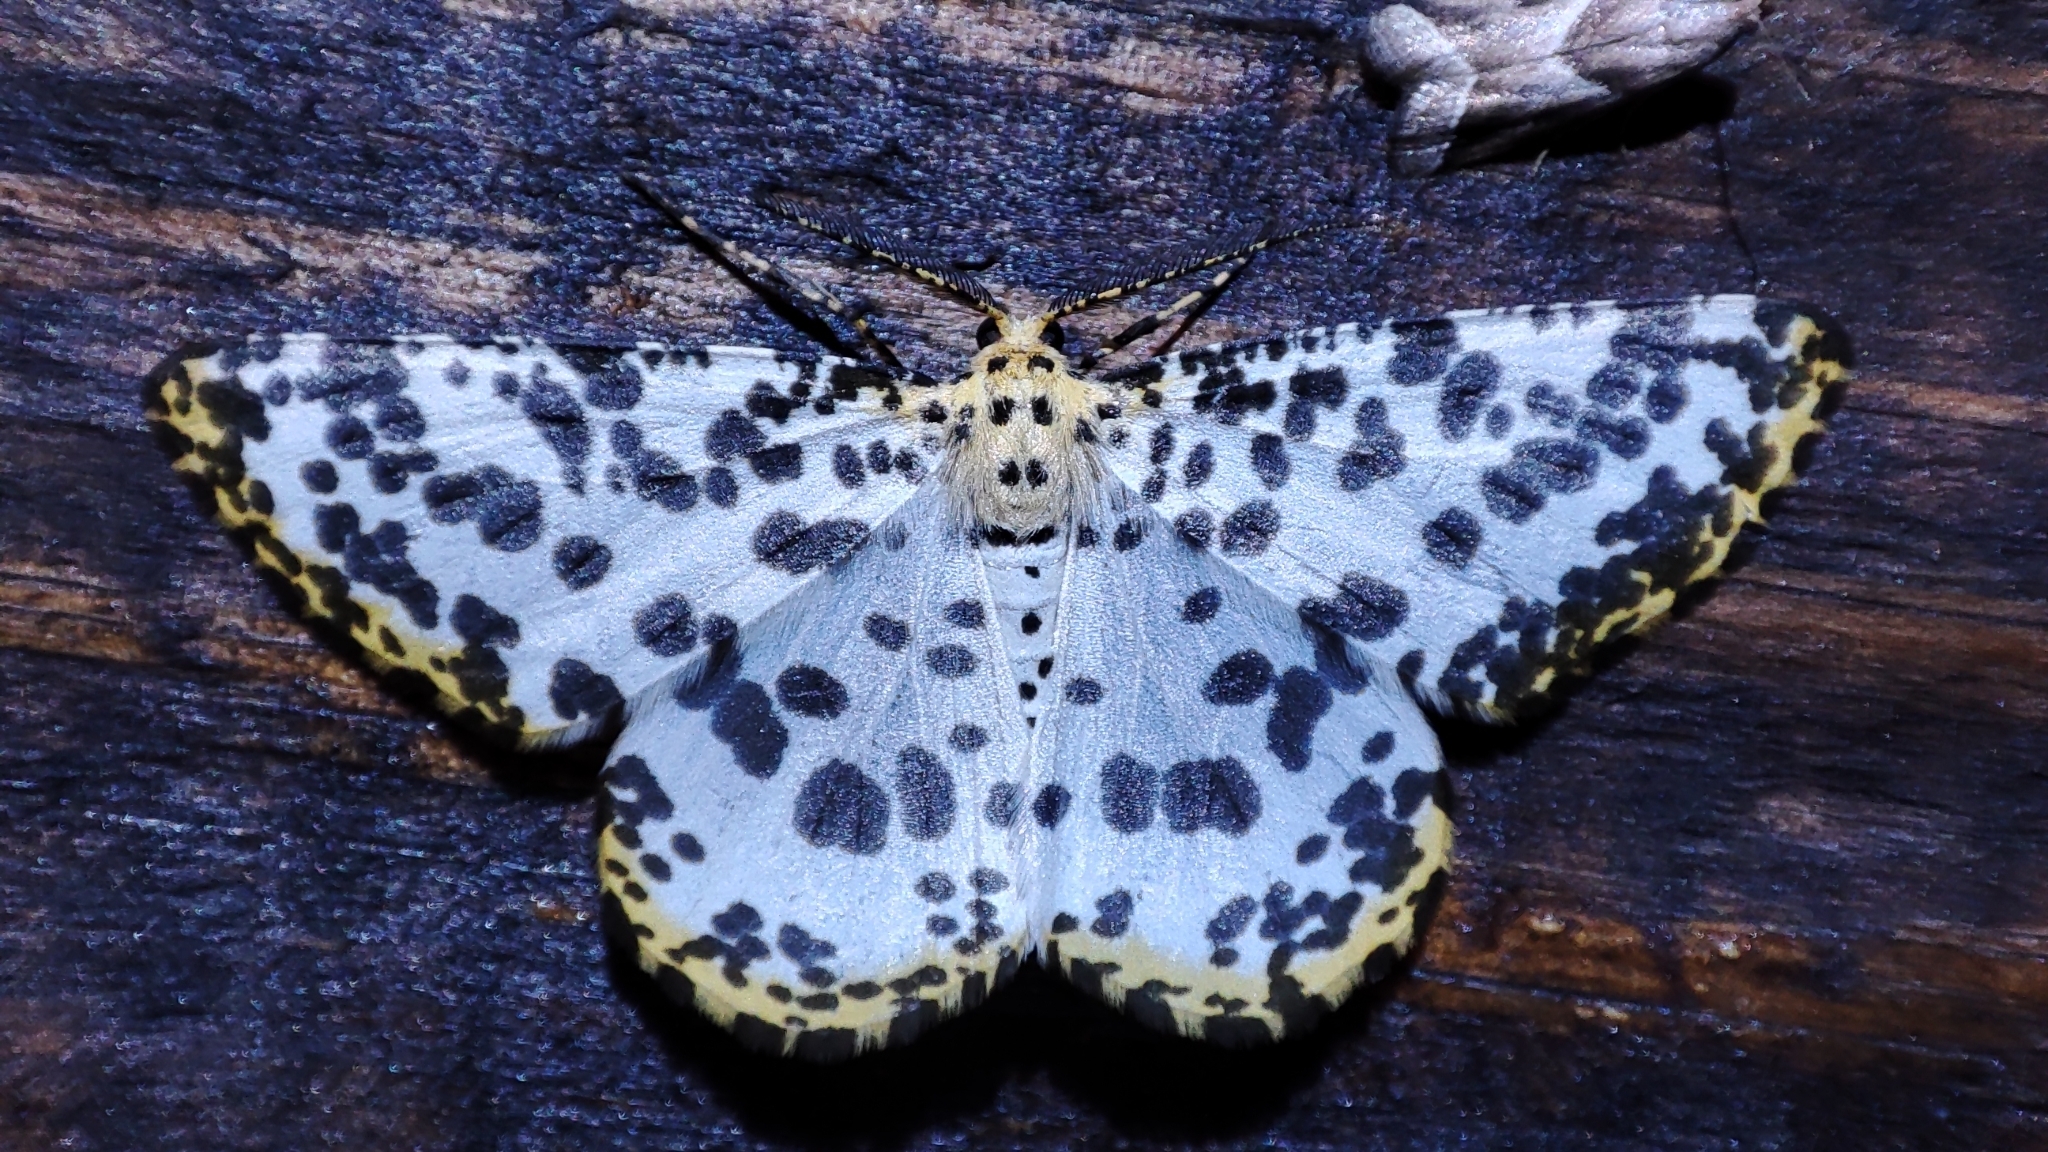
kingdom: Animalia
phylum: Arthropoda
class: Insecta
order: Lepidoptera
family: Geometridae
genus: Diaprepesilla
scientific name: Diaprepesilla flavomarginaria
